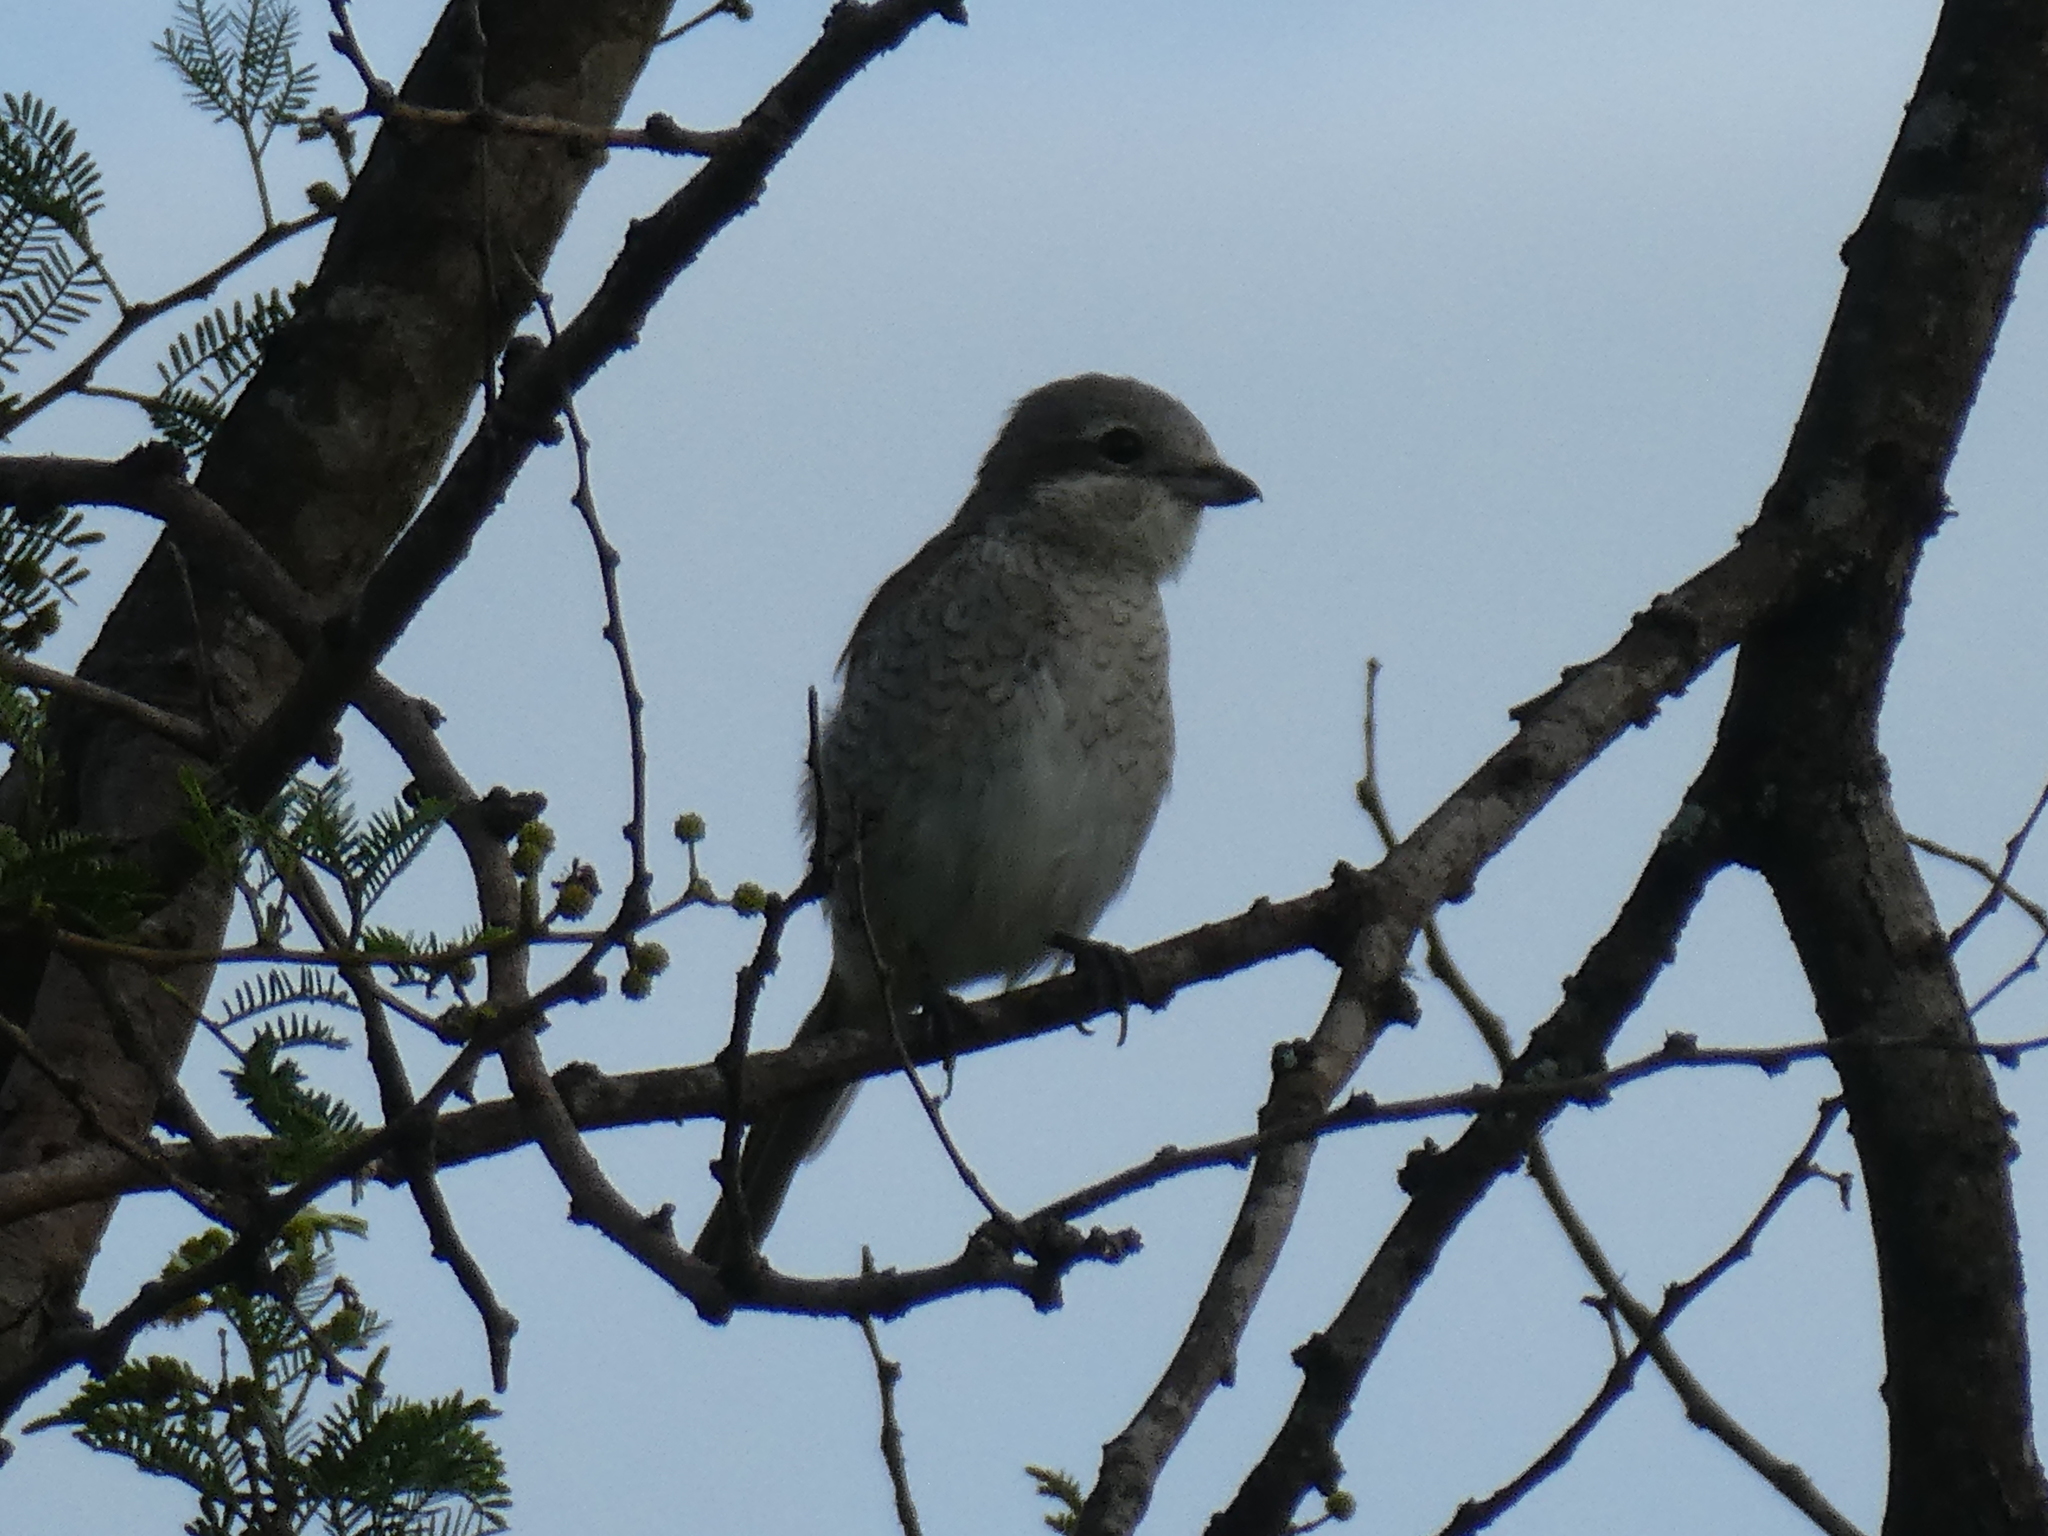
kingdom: Animalia
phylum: Chordata
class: Aves
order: Passeriformes
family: Laniidae
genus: Lanius
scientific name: Lanius collurio
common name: Red-backed shrike
